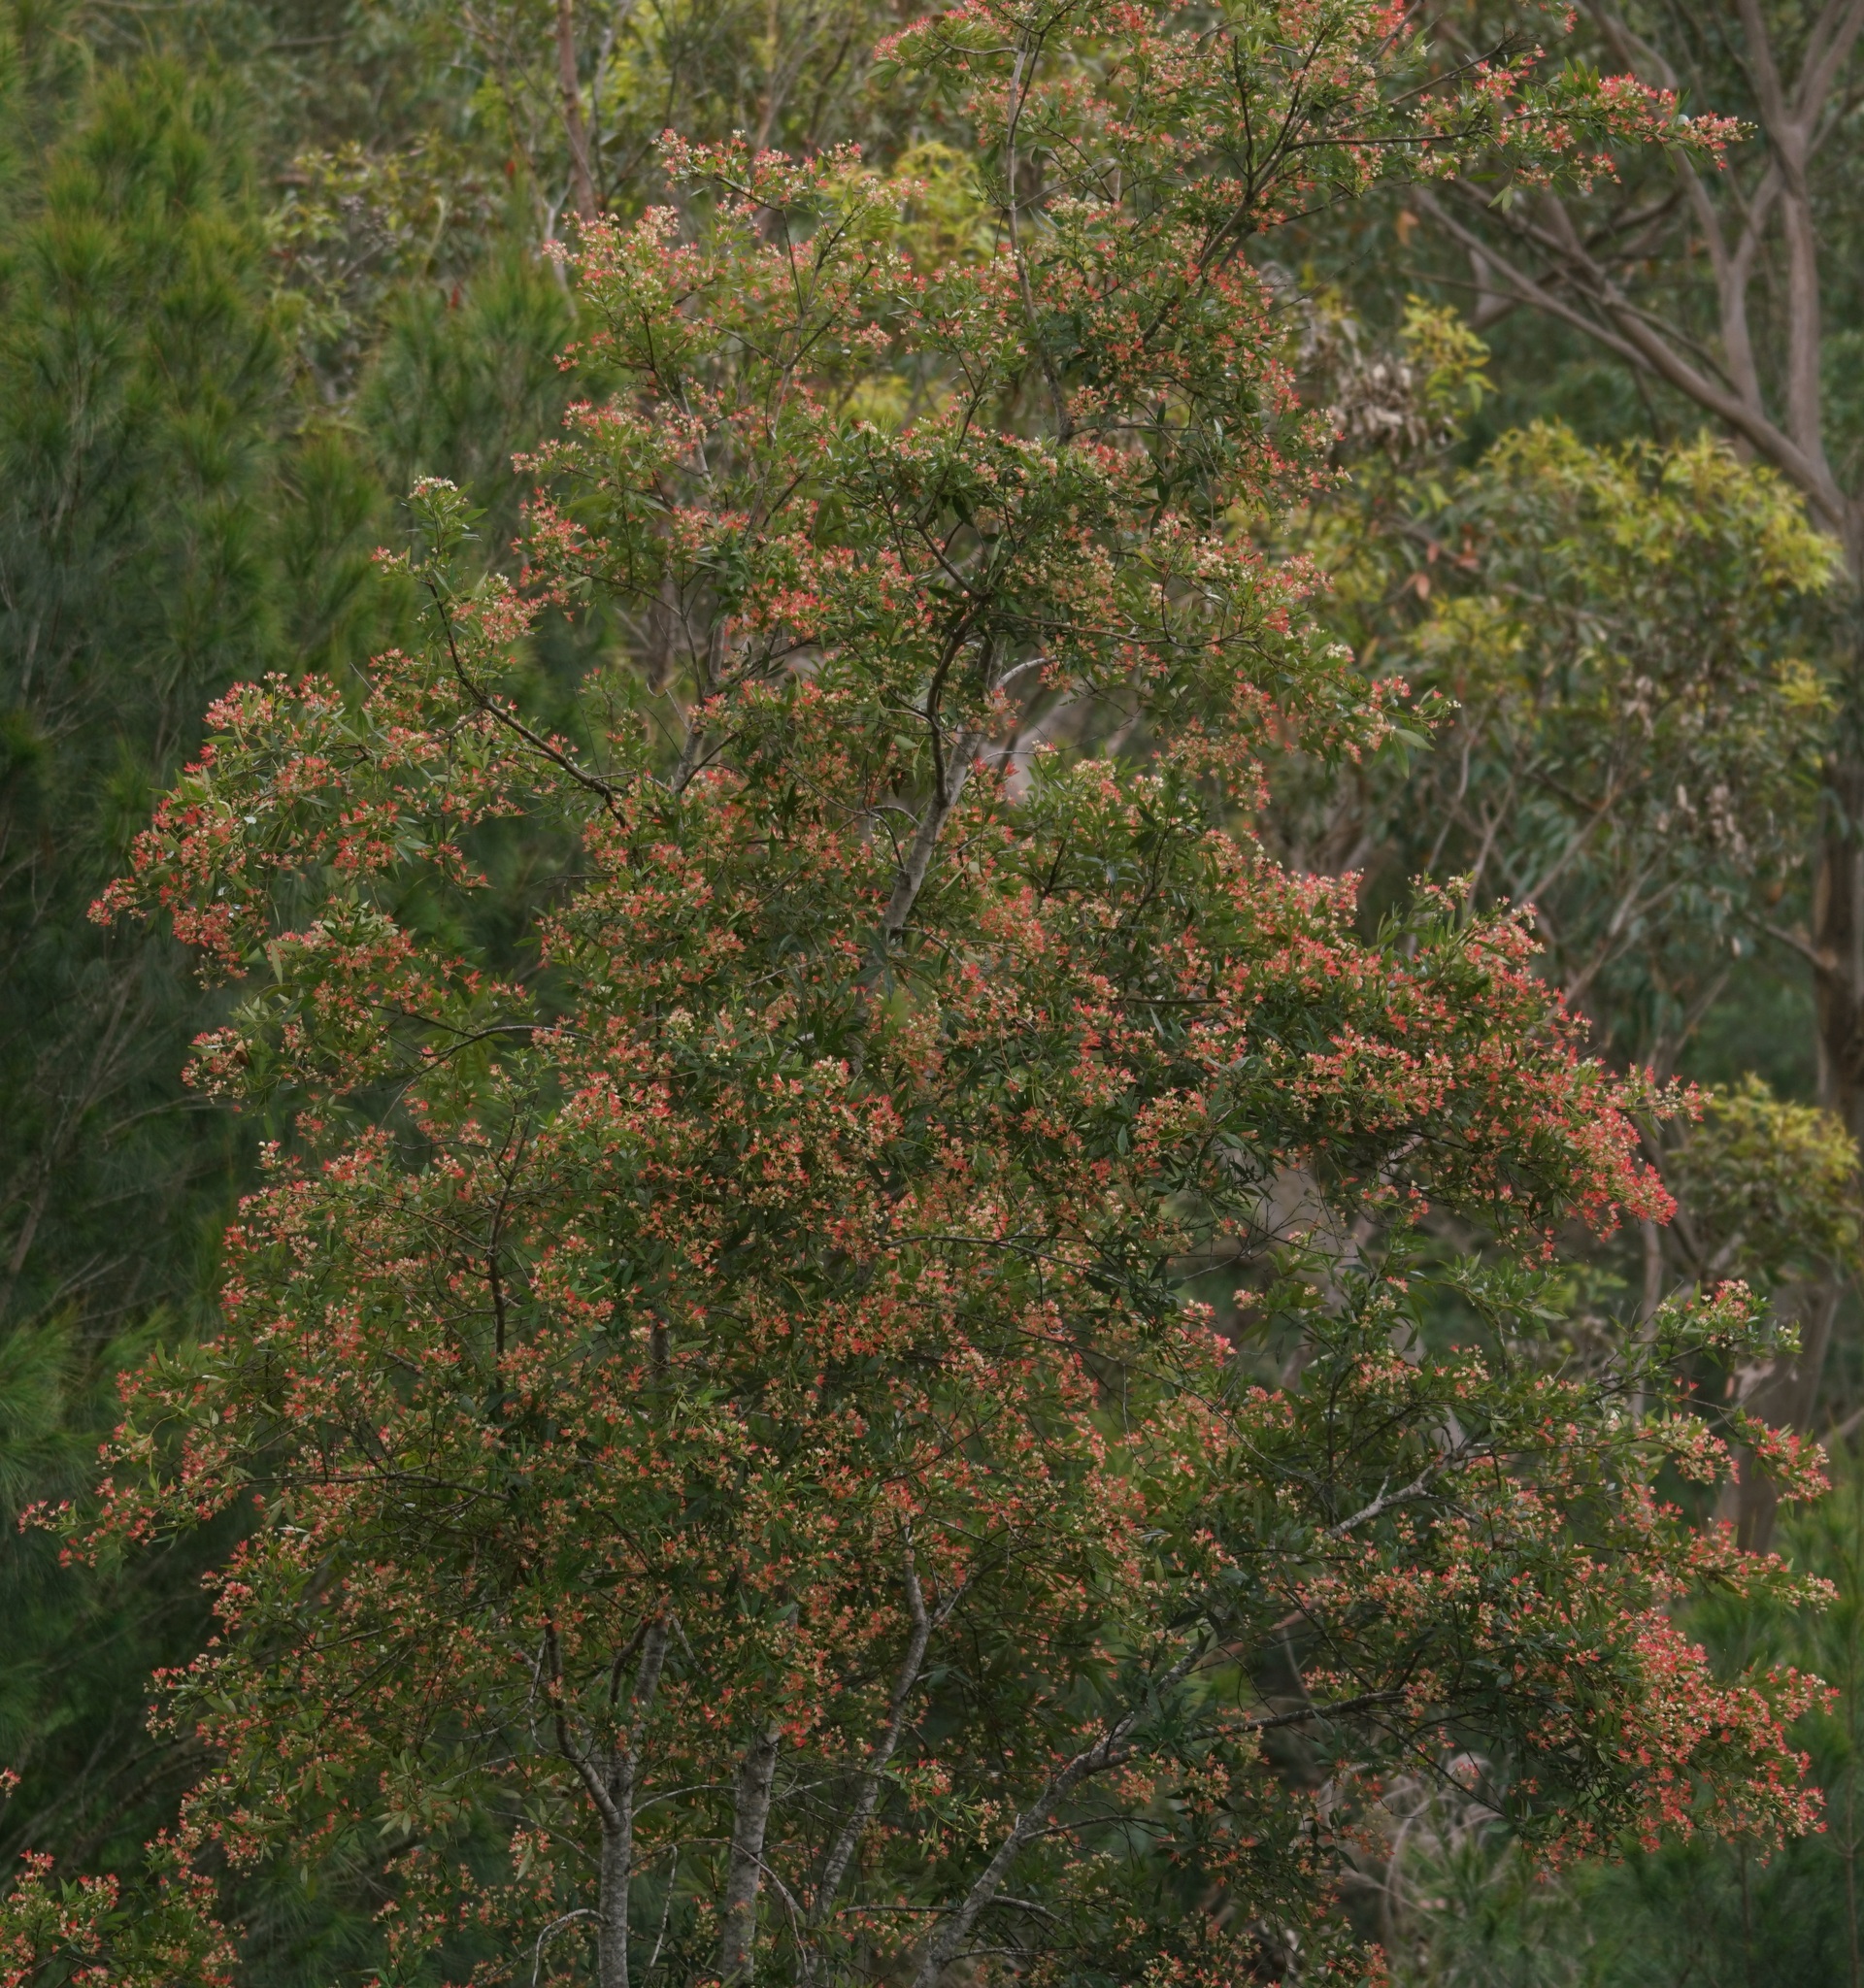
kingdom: Plantae
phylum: Tracheophyta
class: Magnoliopsida
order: Oxalidales
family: Cunoniaceae
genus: Ceratopetalum
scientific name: Ceratopetalum gummiferum
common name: Christmasbush
